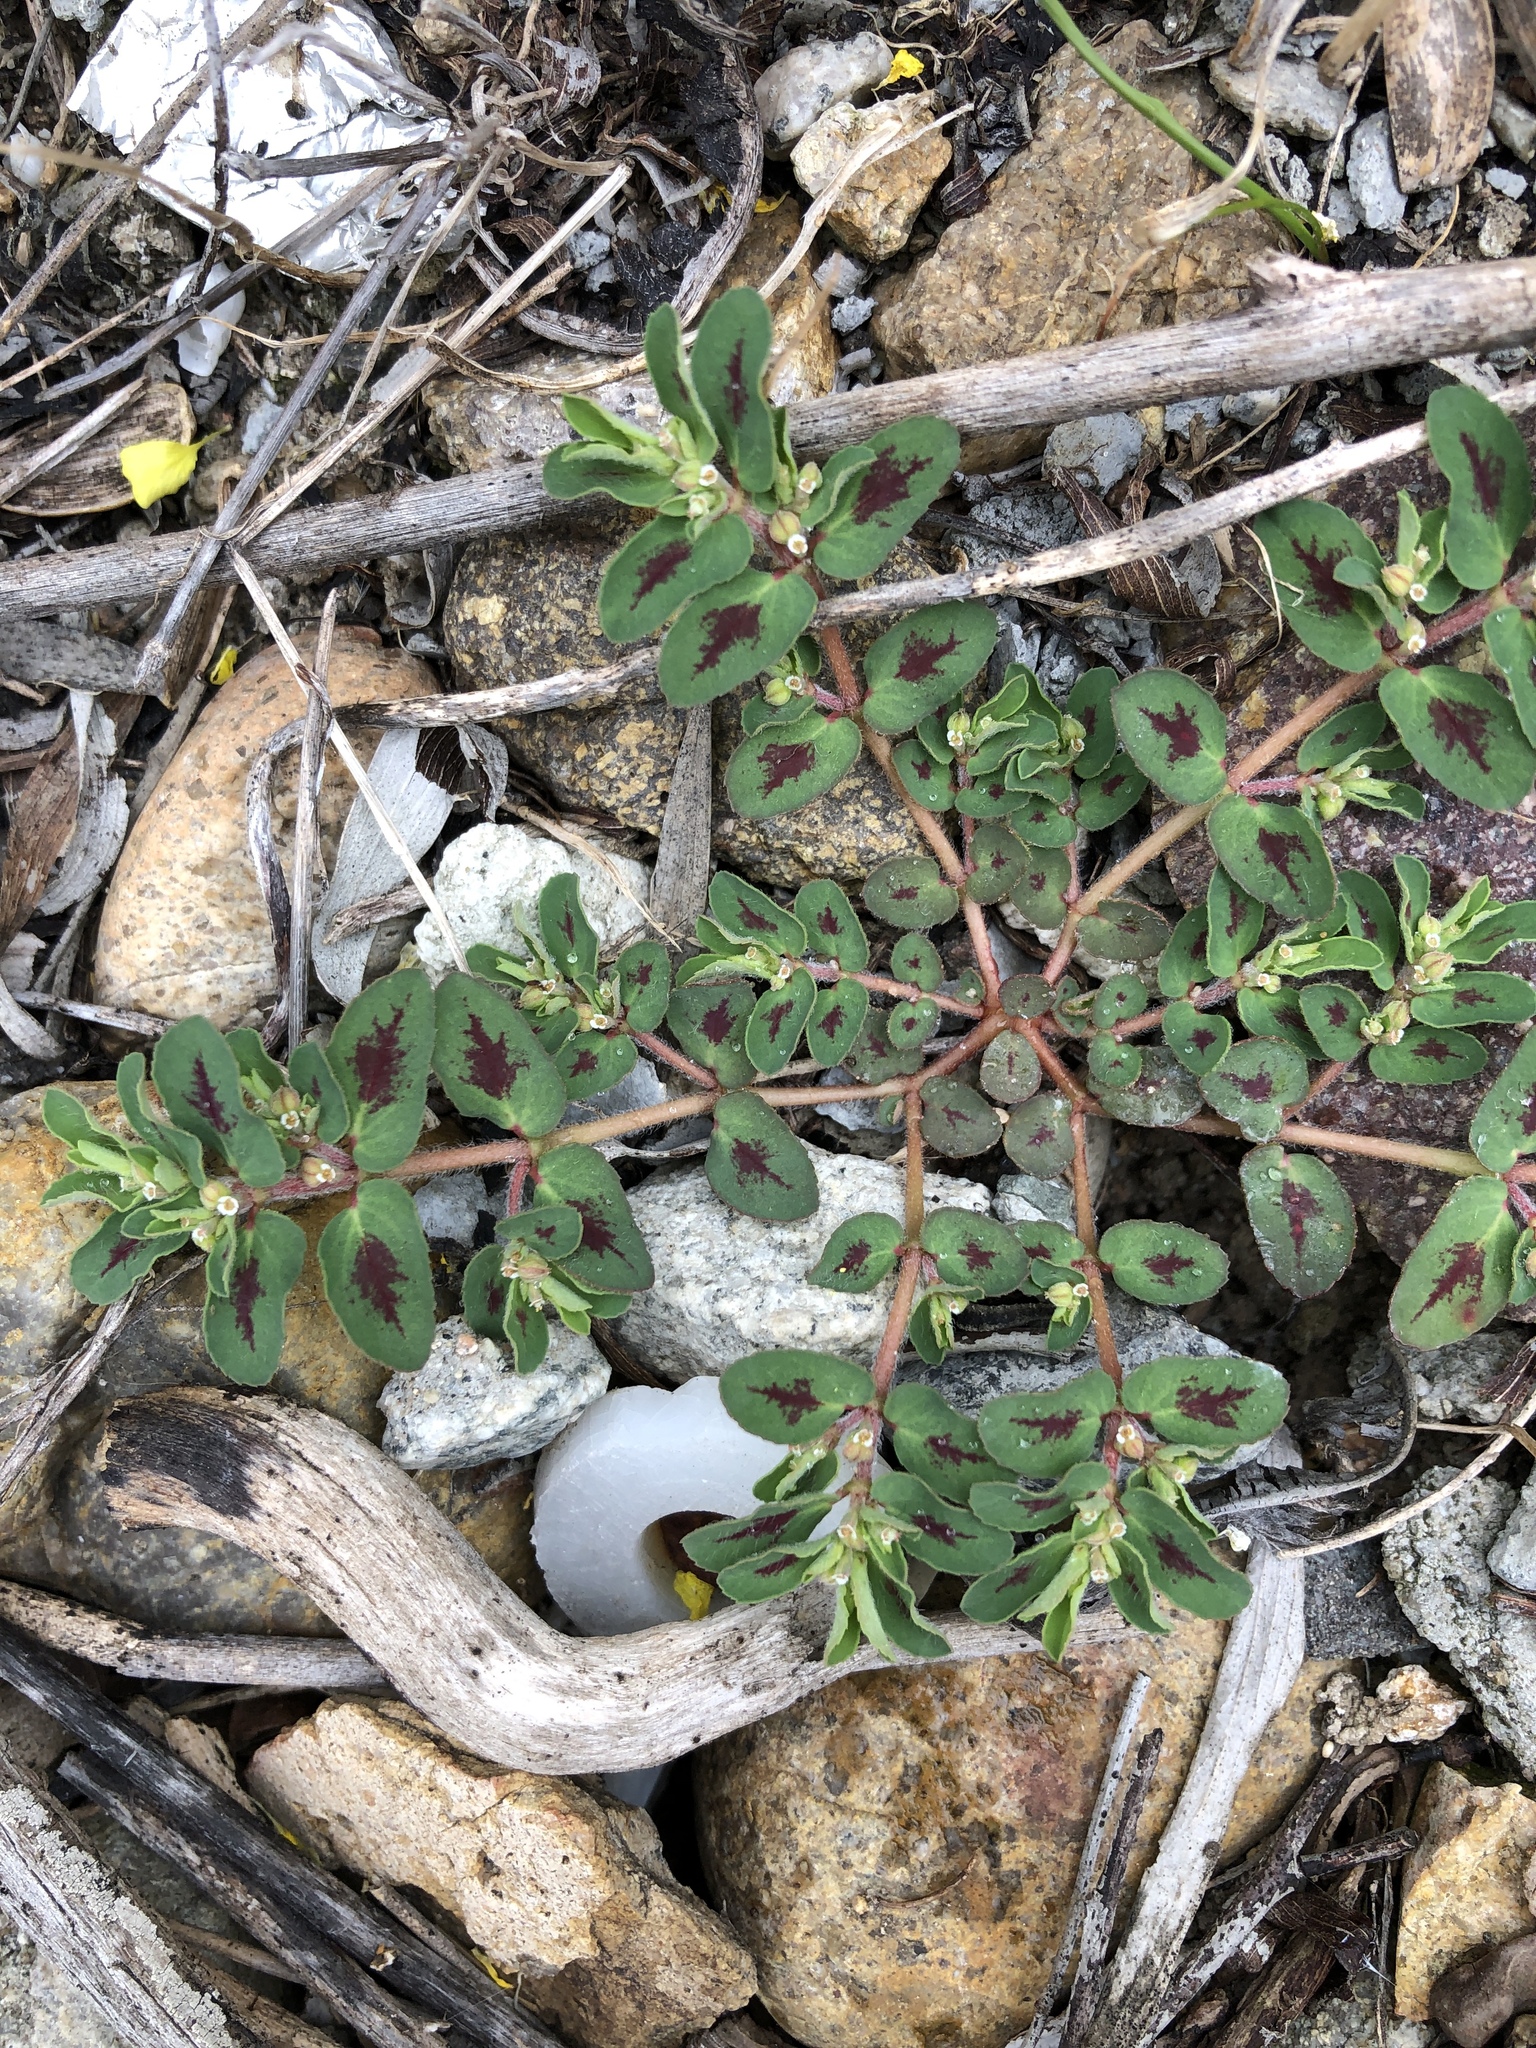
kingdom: Plantae
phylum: Tracheophyta
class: Magnoliopsida
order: Malpighiales
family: Euphorbiaceae
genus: Euphorbia
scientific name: Euphorbia maculata
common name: Spotted spurge
